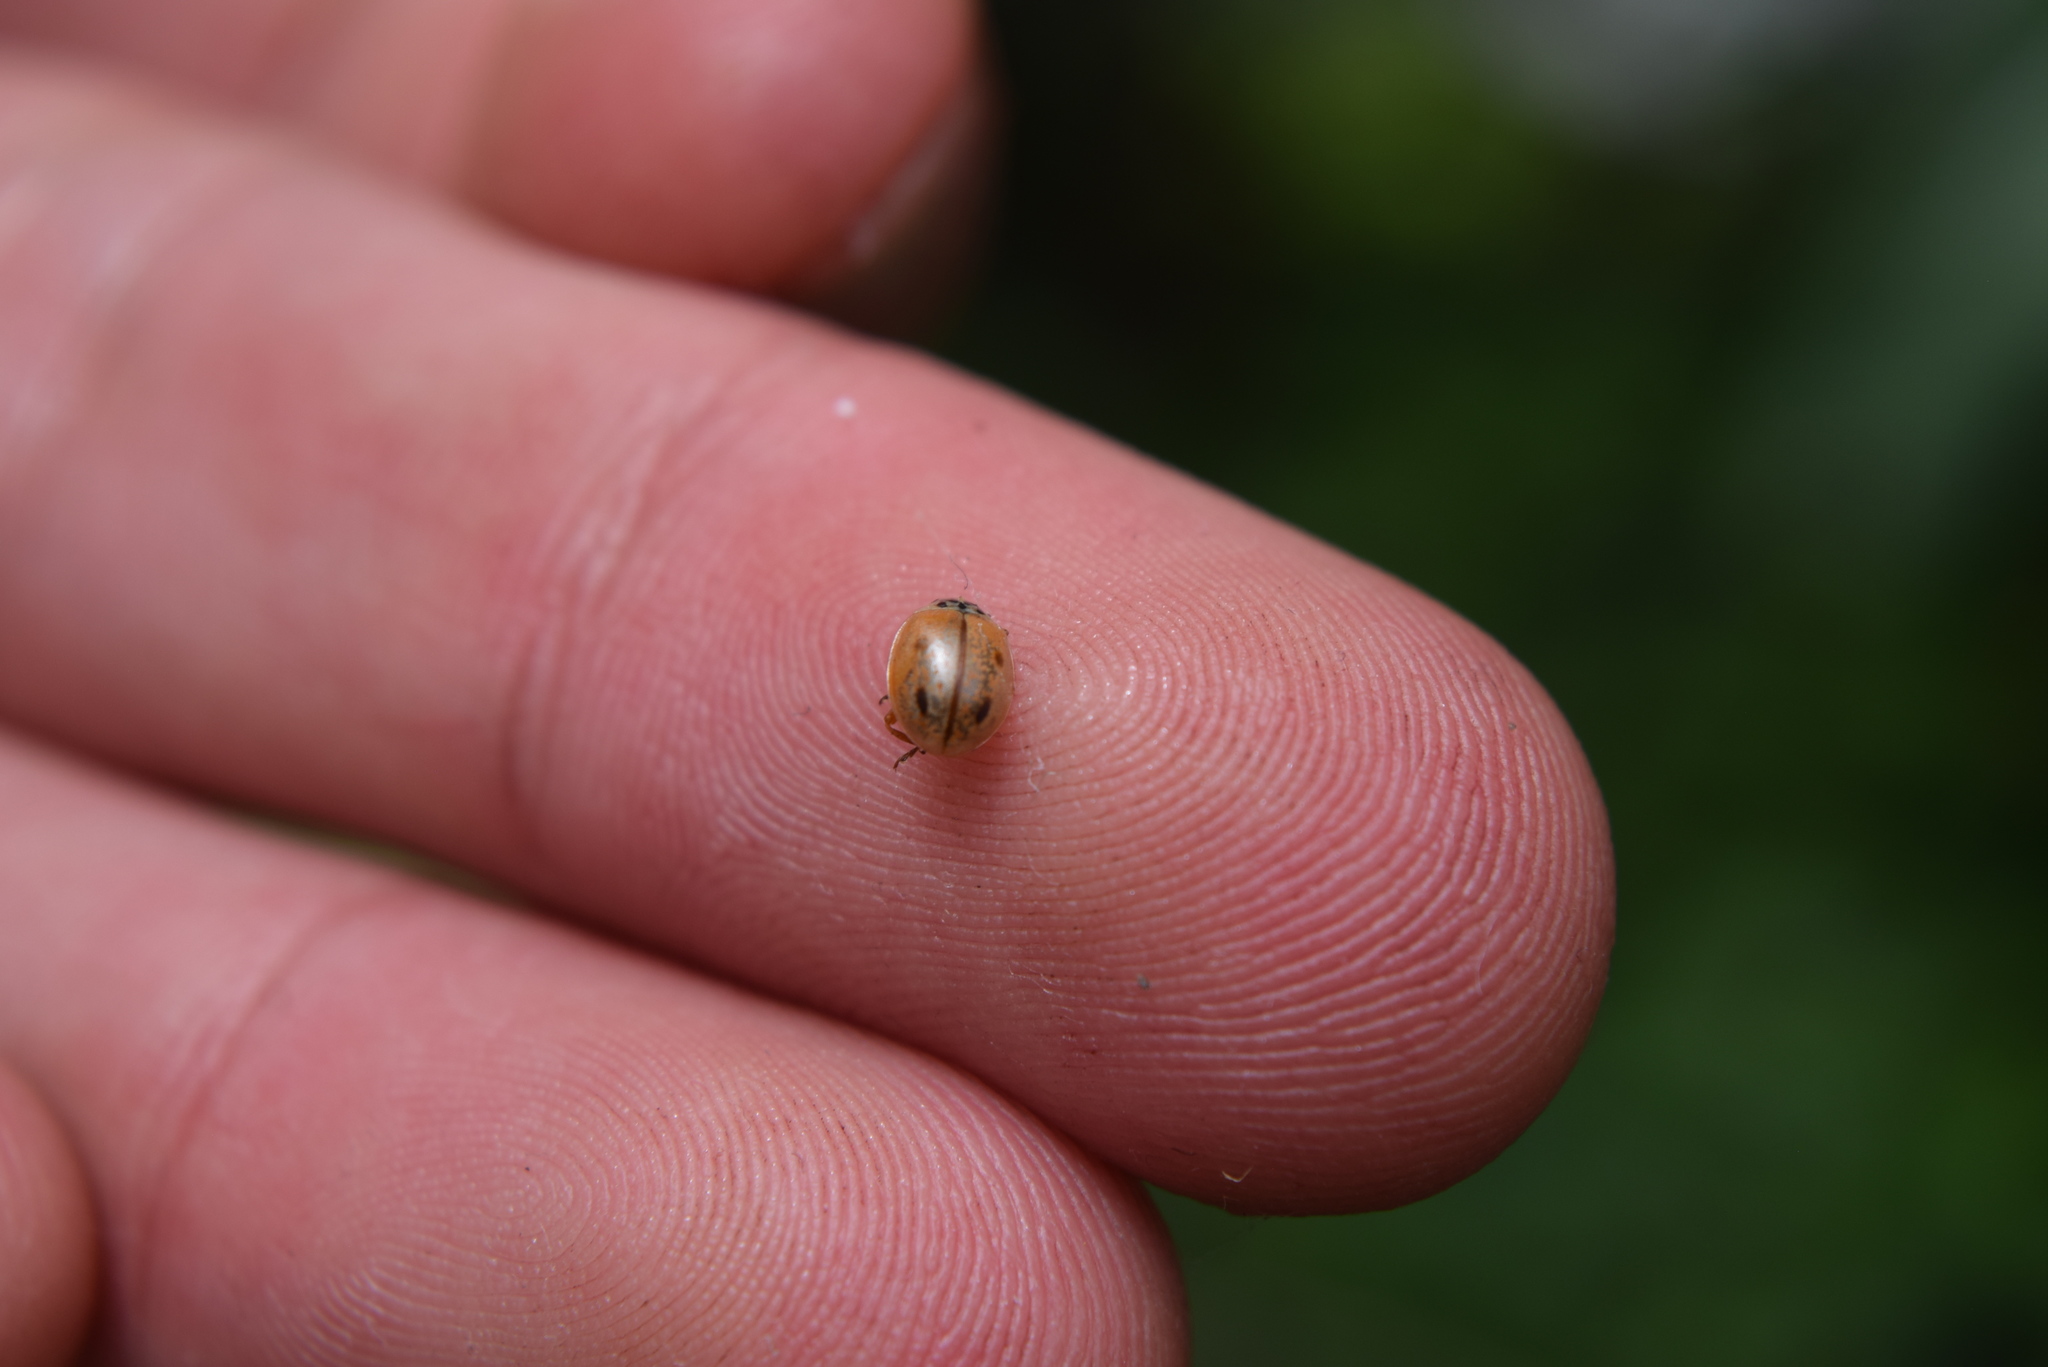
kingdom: Animalia
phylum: Arthropoda
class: Insecta
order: Coleoptera
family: Coccinellidae
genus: Mulsantina
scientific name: Mulsantina
